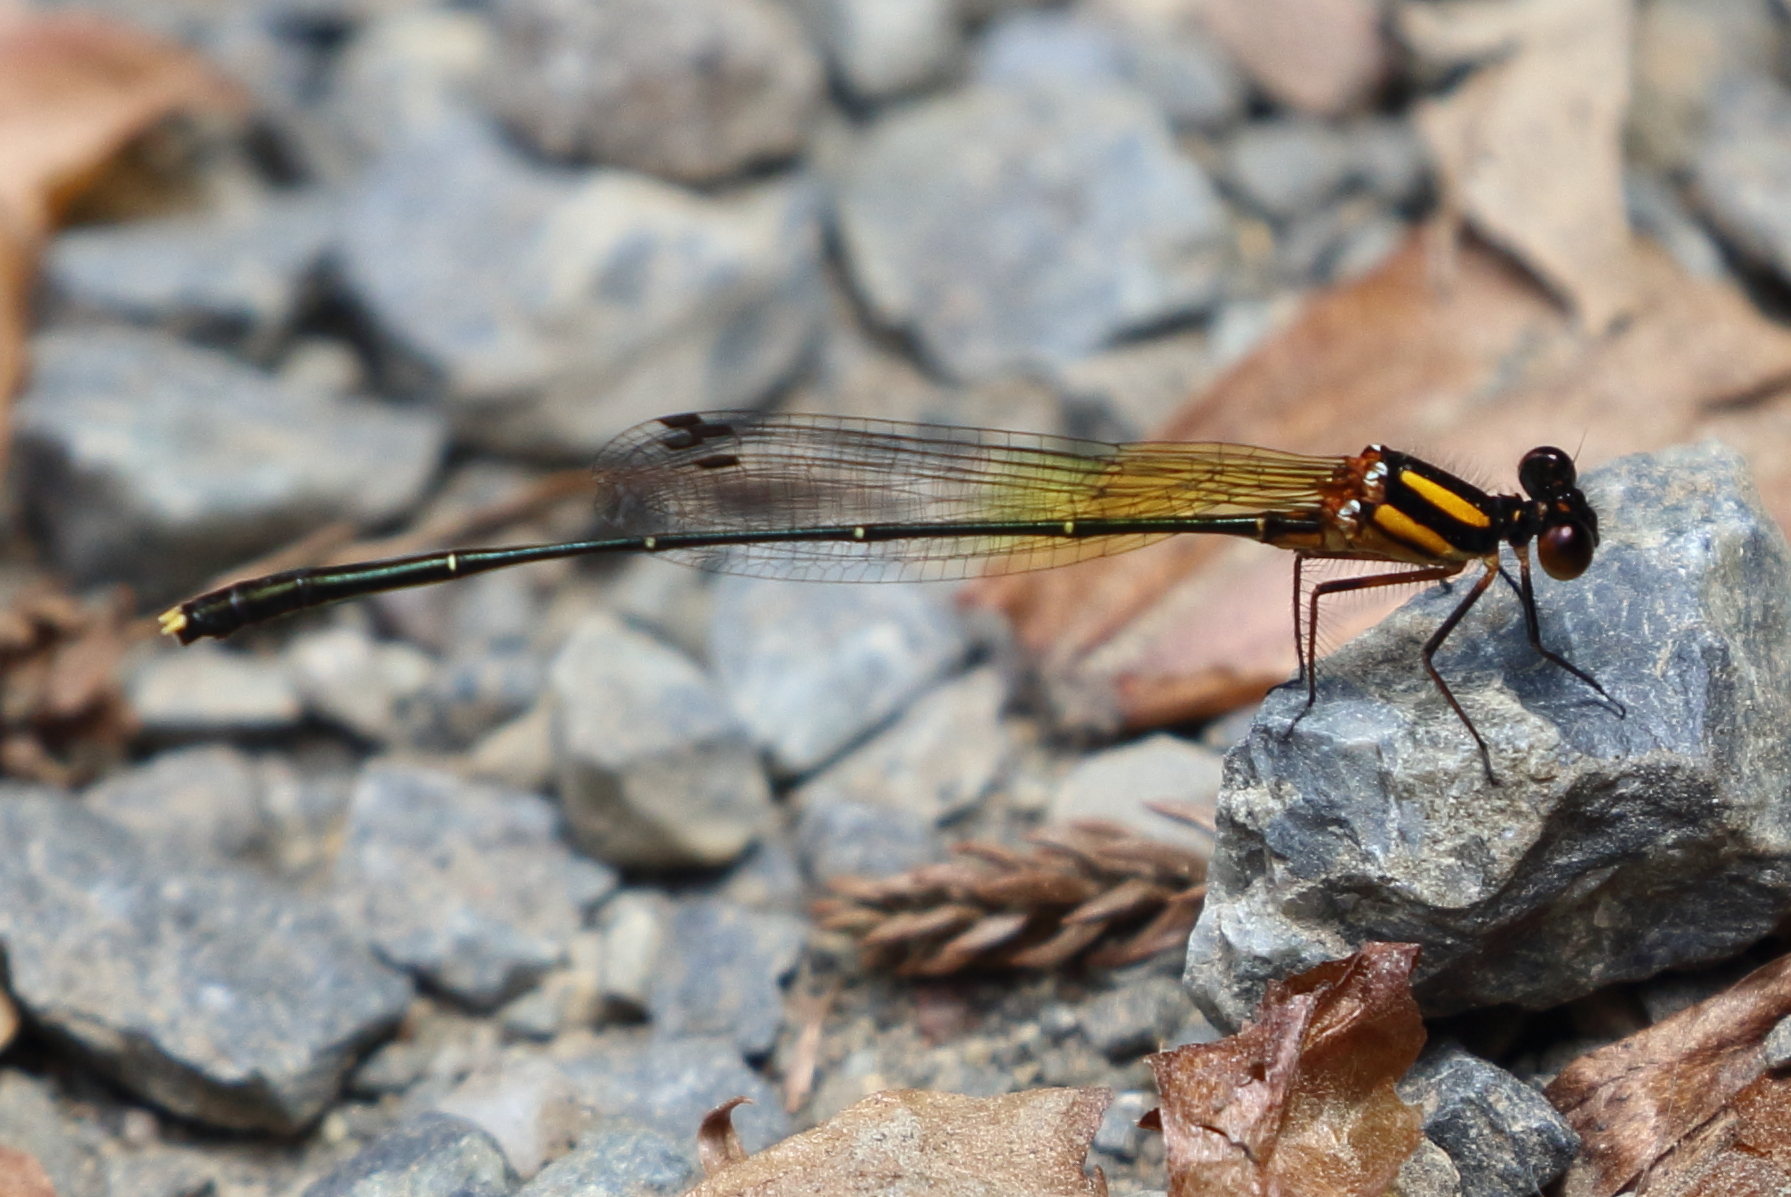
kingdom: Animalia
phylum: Arthropoda
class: Insecta
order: Odonata
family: Platycnemididae
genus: Nososticta
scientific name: Nososticta solida
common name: Orange threadtail
